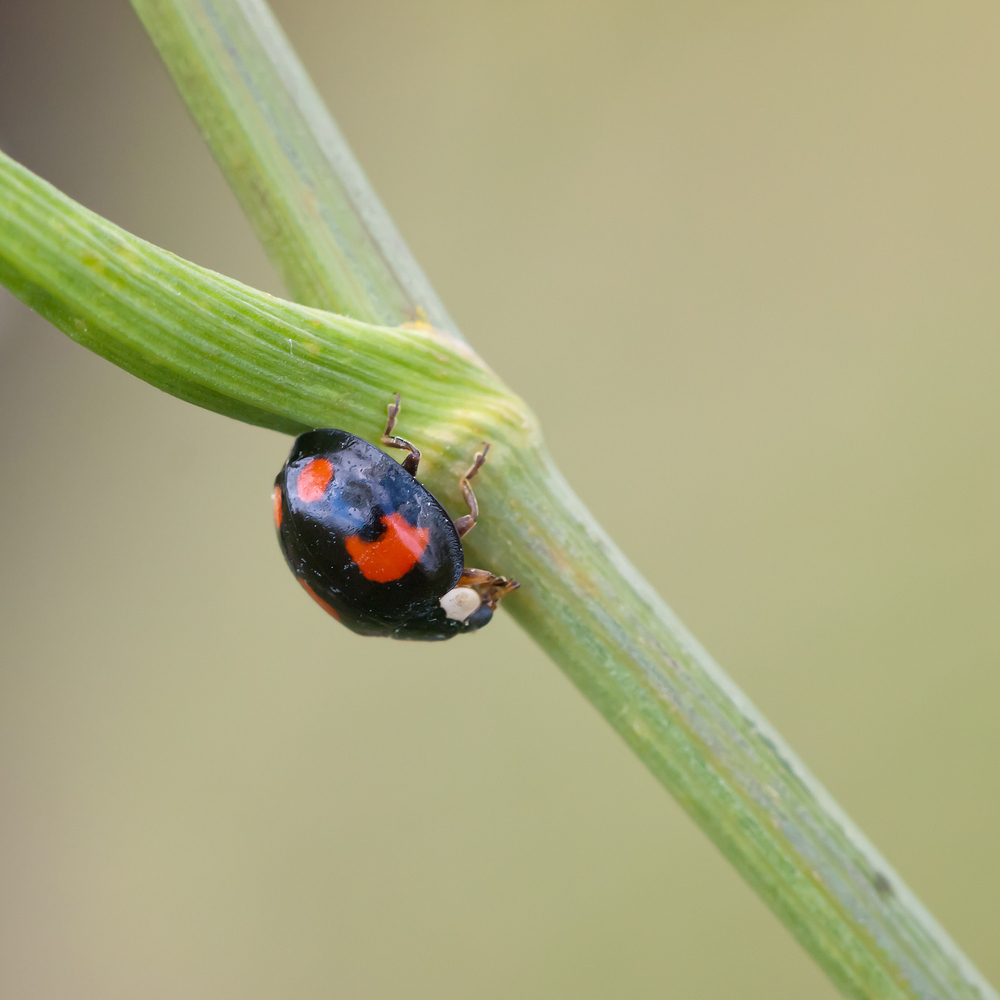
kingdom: Animalia
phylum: Arthropoda
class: Insecta
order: Coleoptera
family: Coccinellidae
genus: Harmonia
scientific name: Harmonia axyridis
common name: Harlequin ladybird
